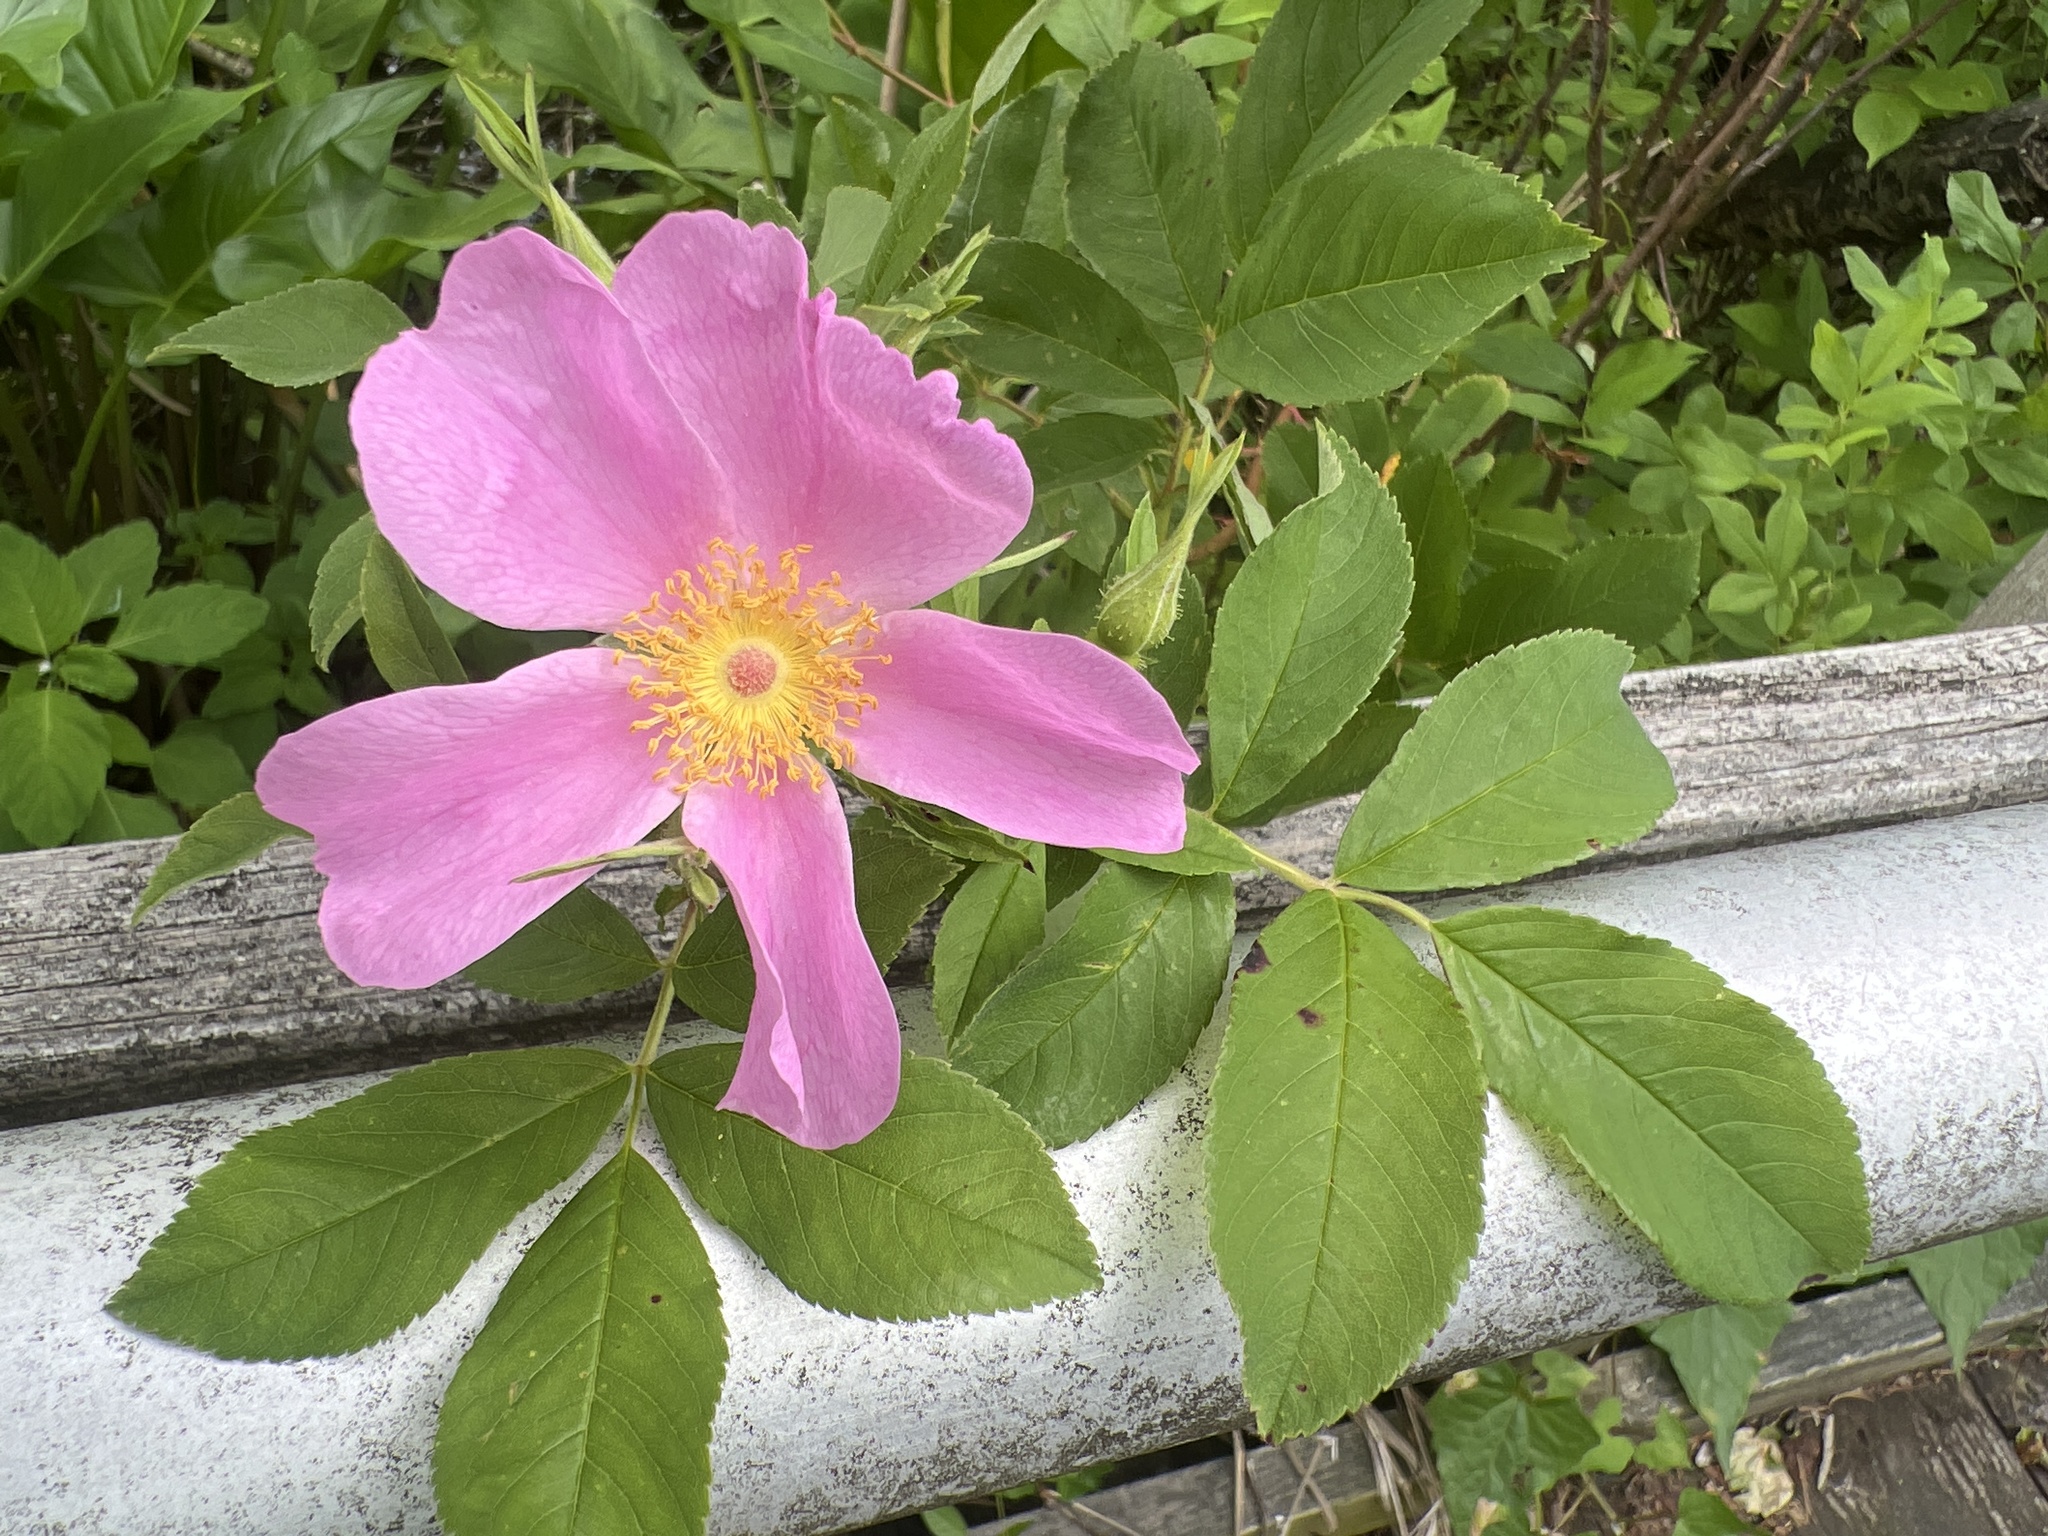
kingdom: Plantae
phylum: Tracheophyta
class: Magnoliopsida
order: Rosales
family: Rosaceae
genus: Rosa
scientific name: Rosa palustris
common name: Swamp rose
